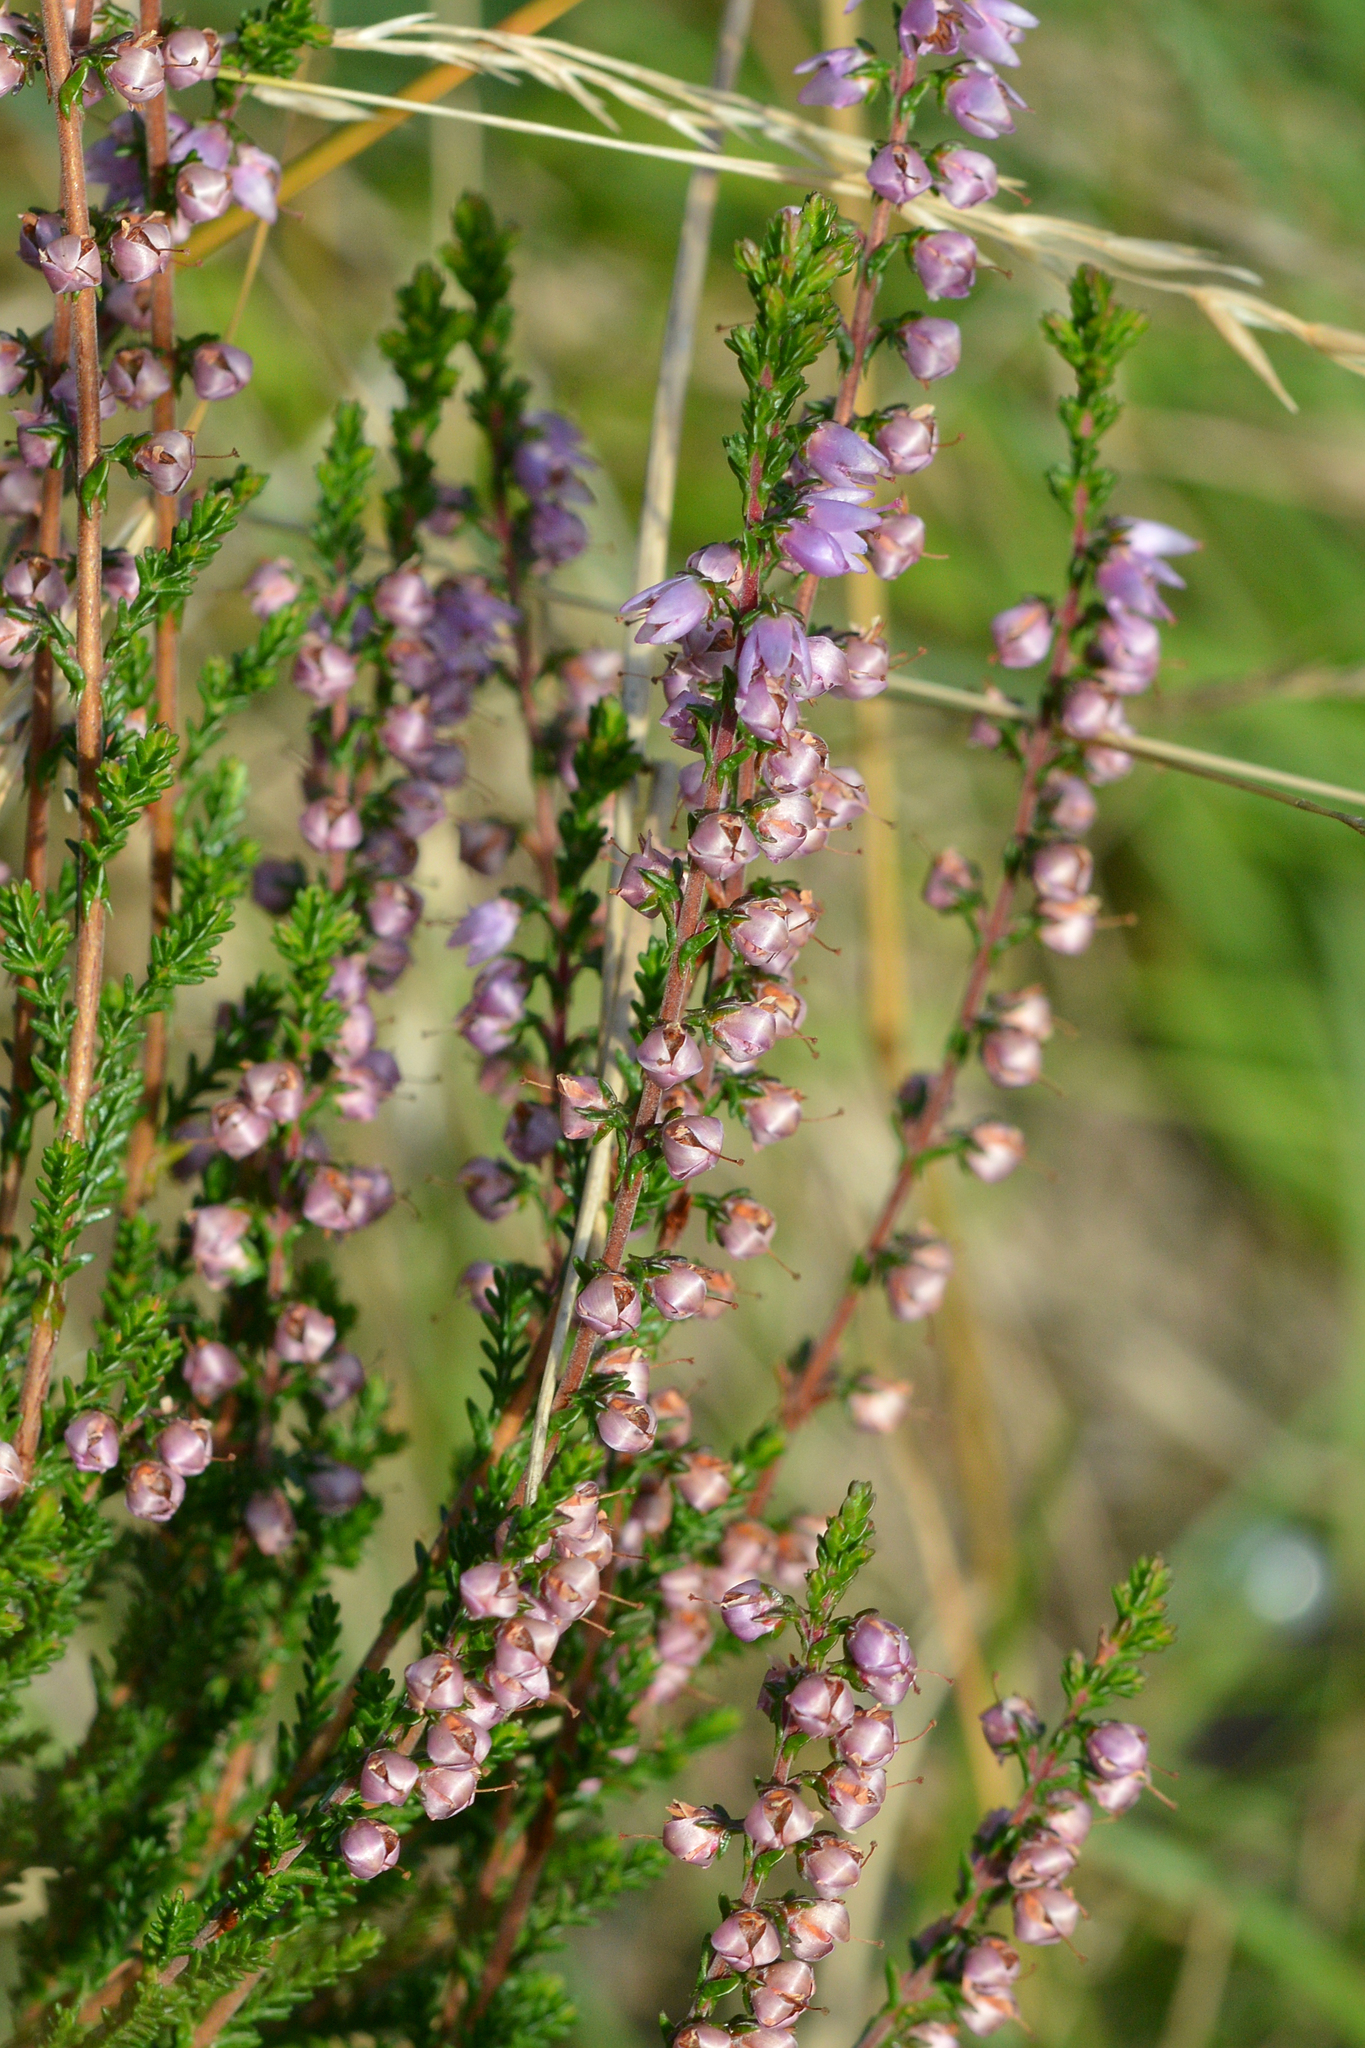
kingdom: Plantae
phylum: Tracheophyta
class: Magnoliopsida
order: Ericales
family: Ericaceae
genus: Calluna
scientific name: Calluna vulgaris
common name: Heather
